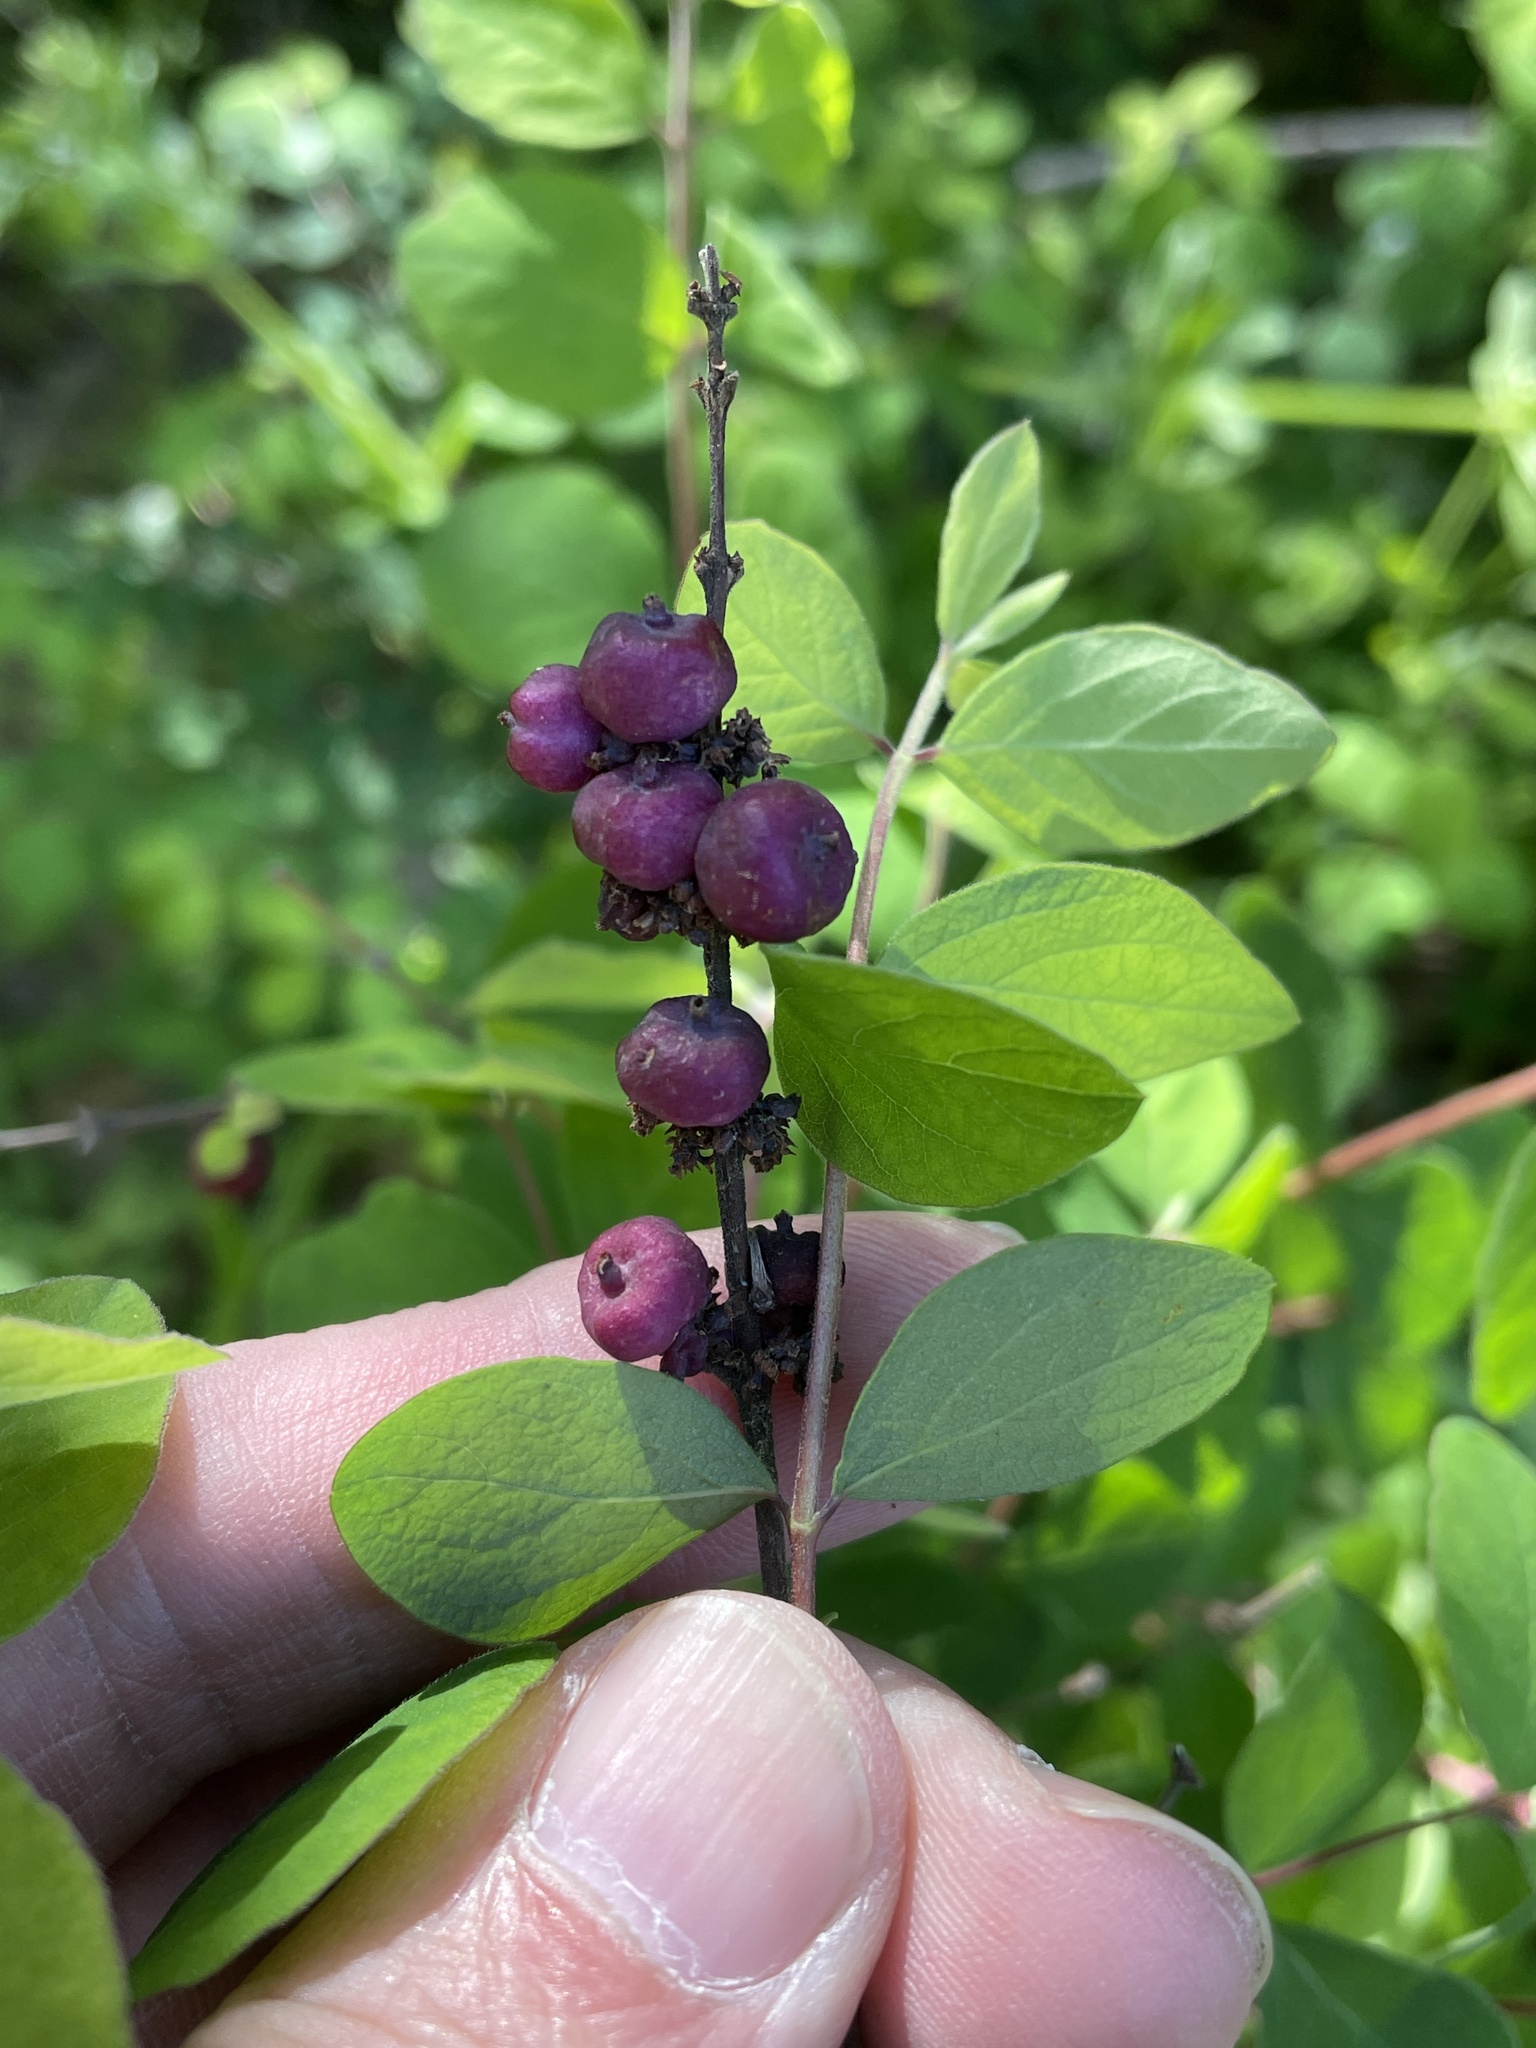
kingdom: Plantae
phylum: Tracheophyta
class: Magnoliopsida
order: Dipsacales
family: Caprifoliaceae
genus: Symphoricarpos
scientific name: Symphoricarpos orbiculatus
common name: Coralberry
